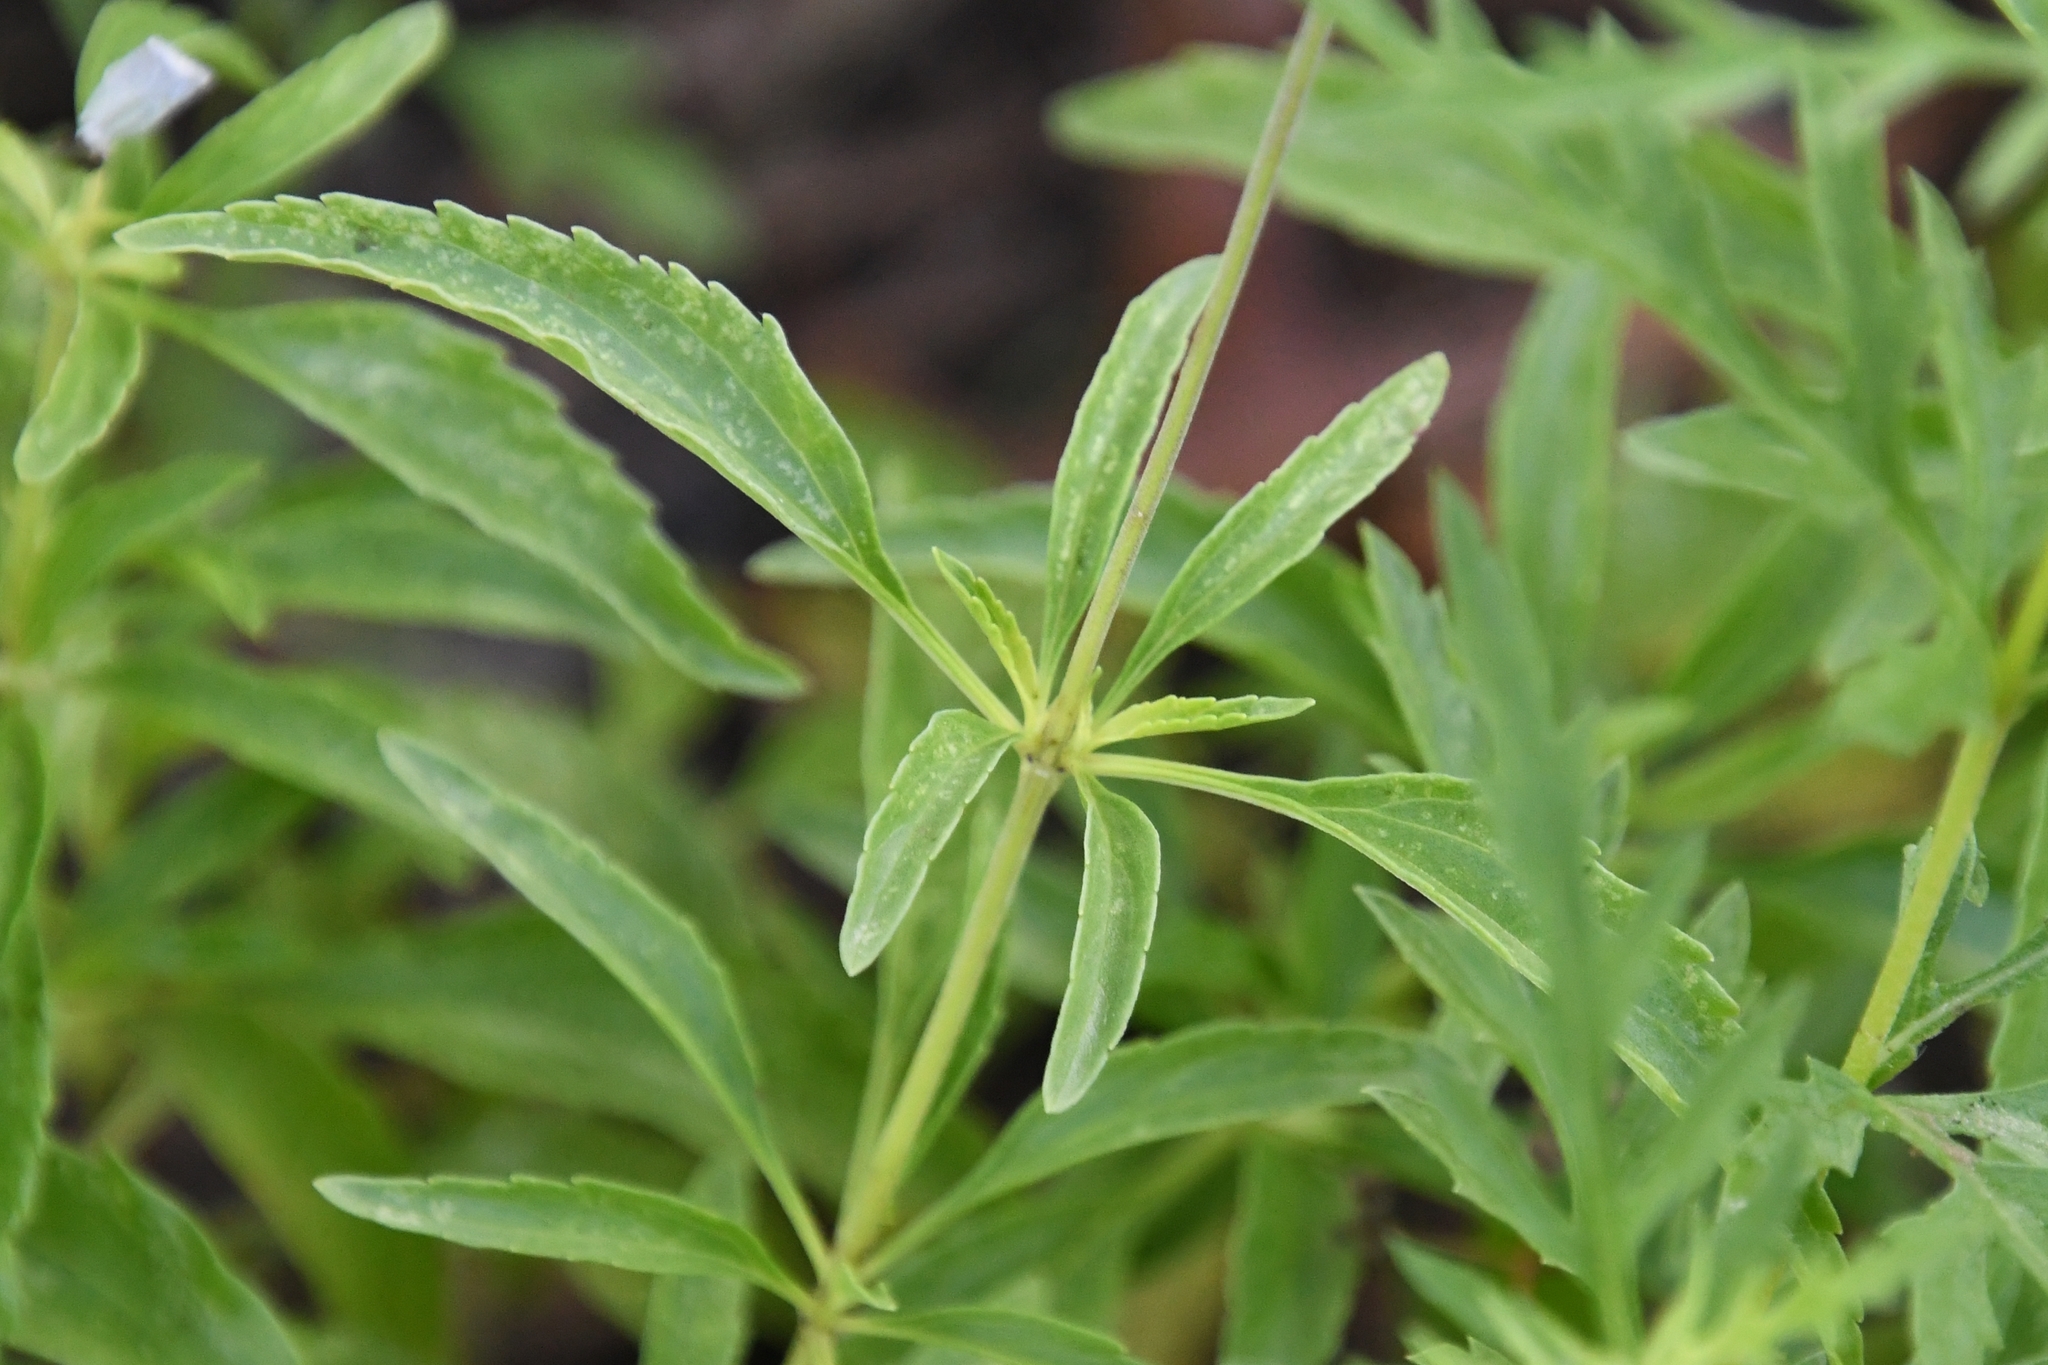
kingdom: Plantae
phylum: Tracheophyta
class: Magnoliopsida
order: Lamiales
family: Lamiaceae
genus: Salvia
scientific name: Salvia farinacea
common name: Mealy sage
